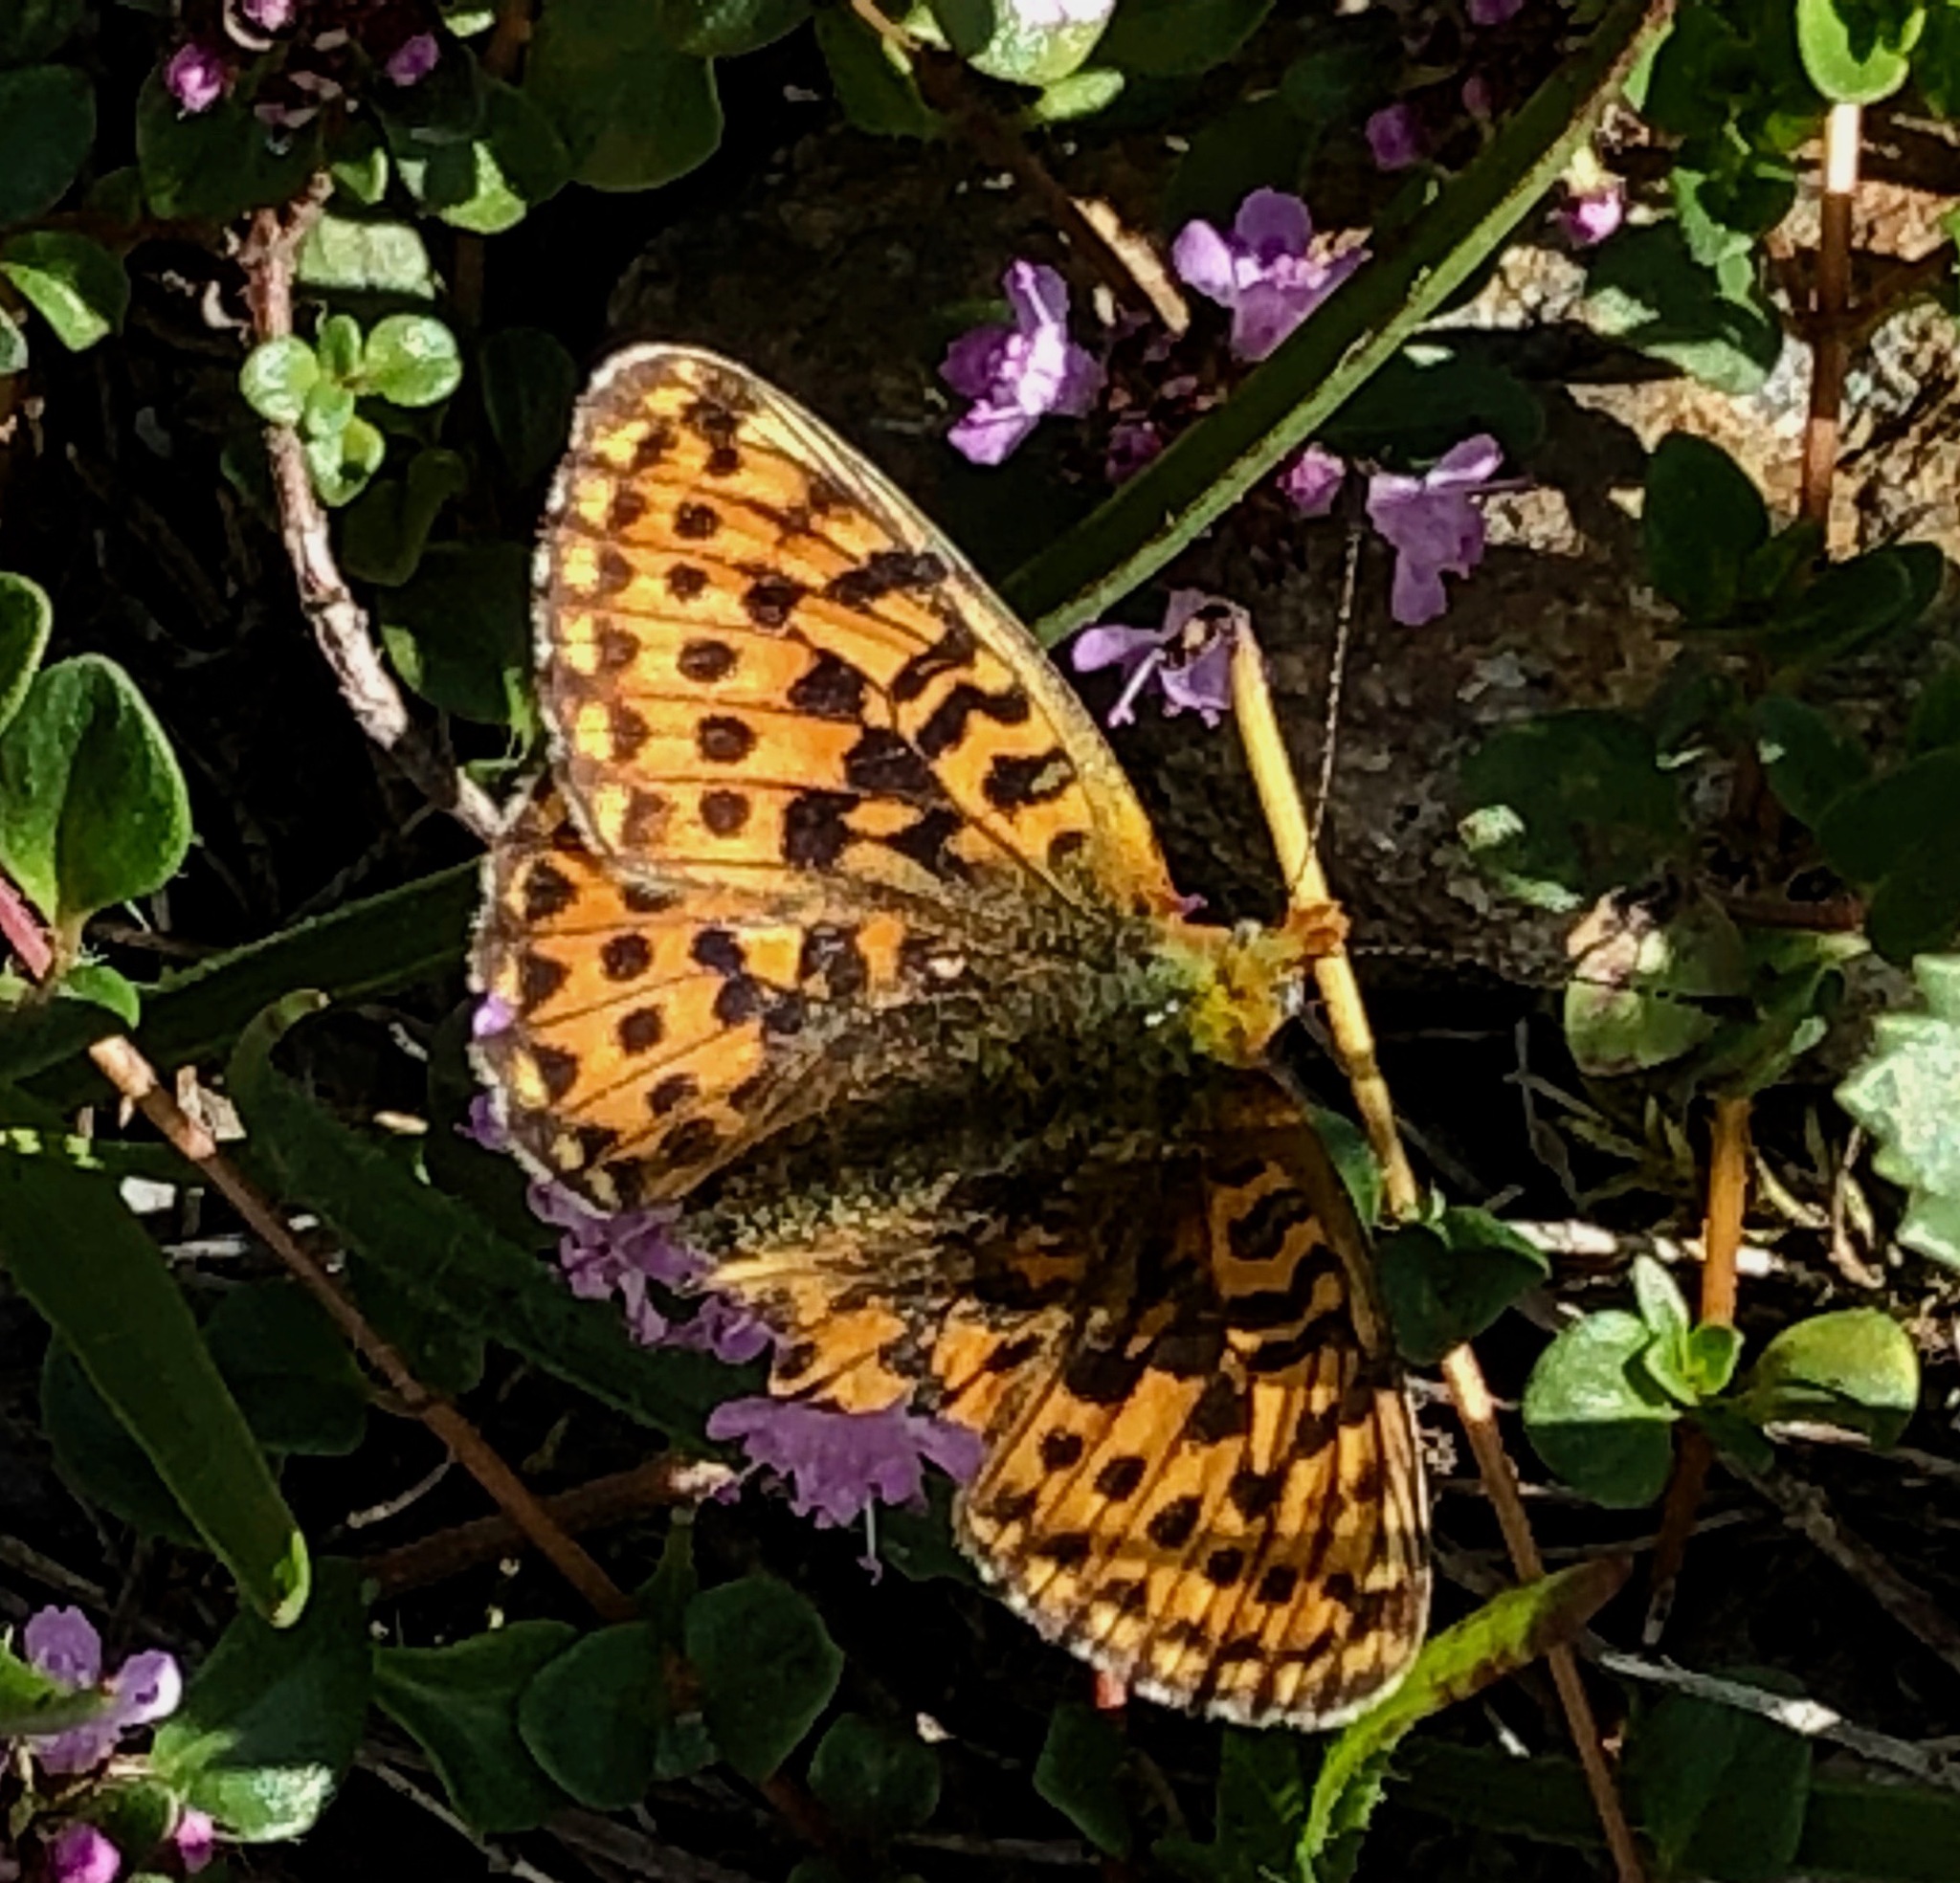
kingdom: Animalia
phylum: Arthropoda
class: Insecta
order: Lepidoptera
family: Nymphalidae
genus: Clossiana
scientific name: Clossiana euphrosyne
